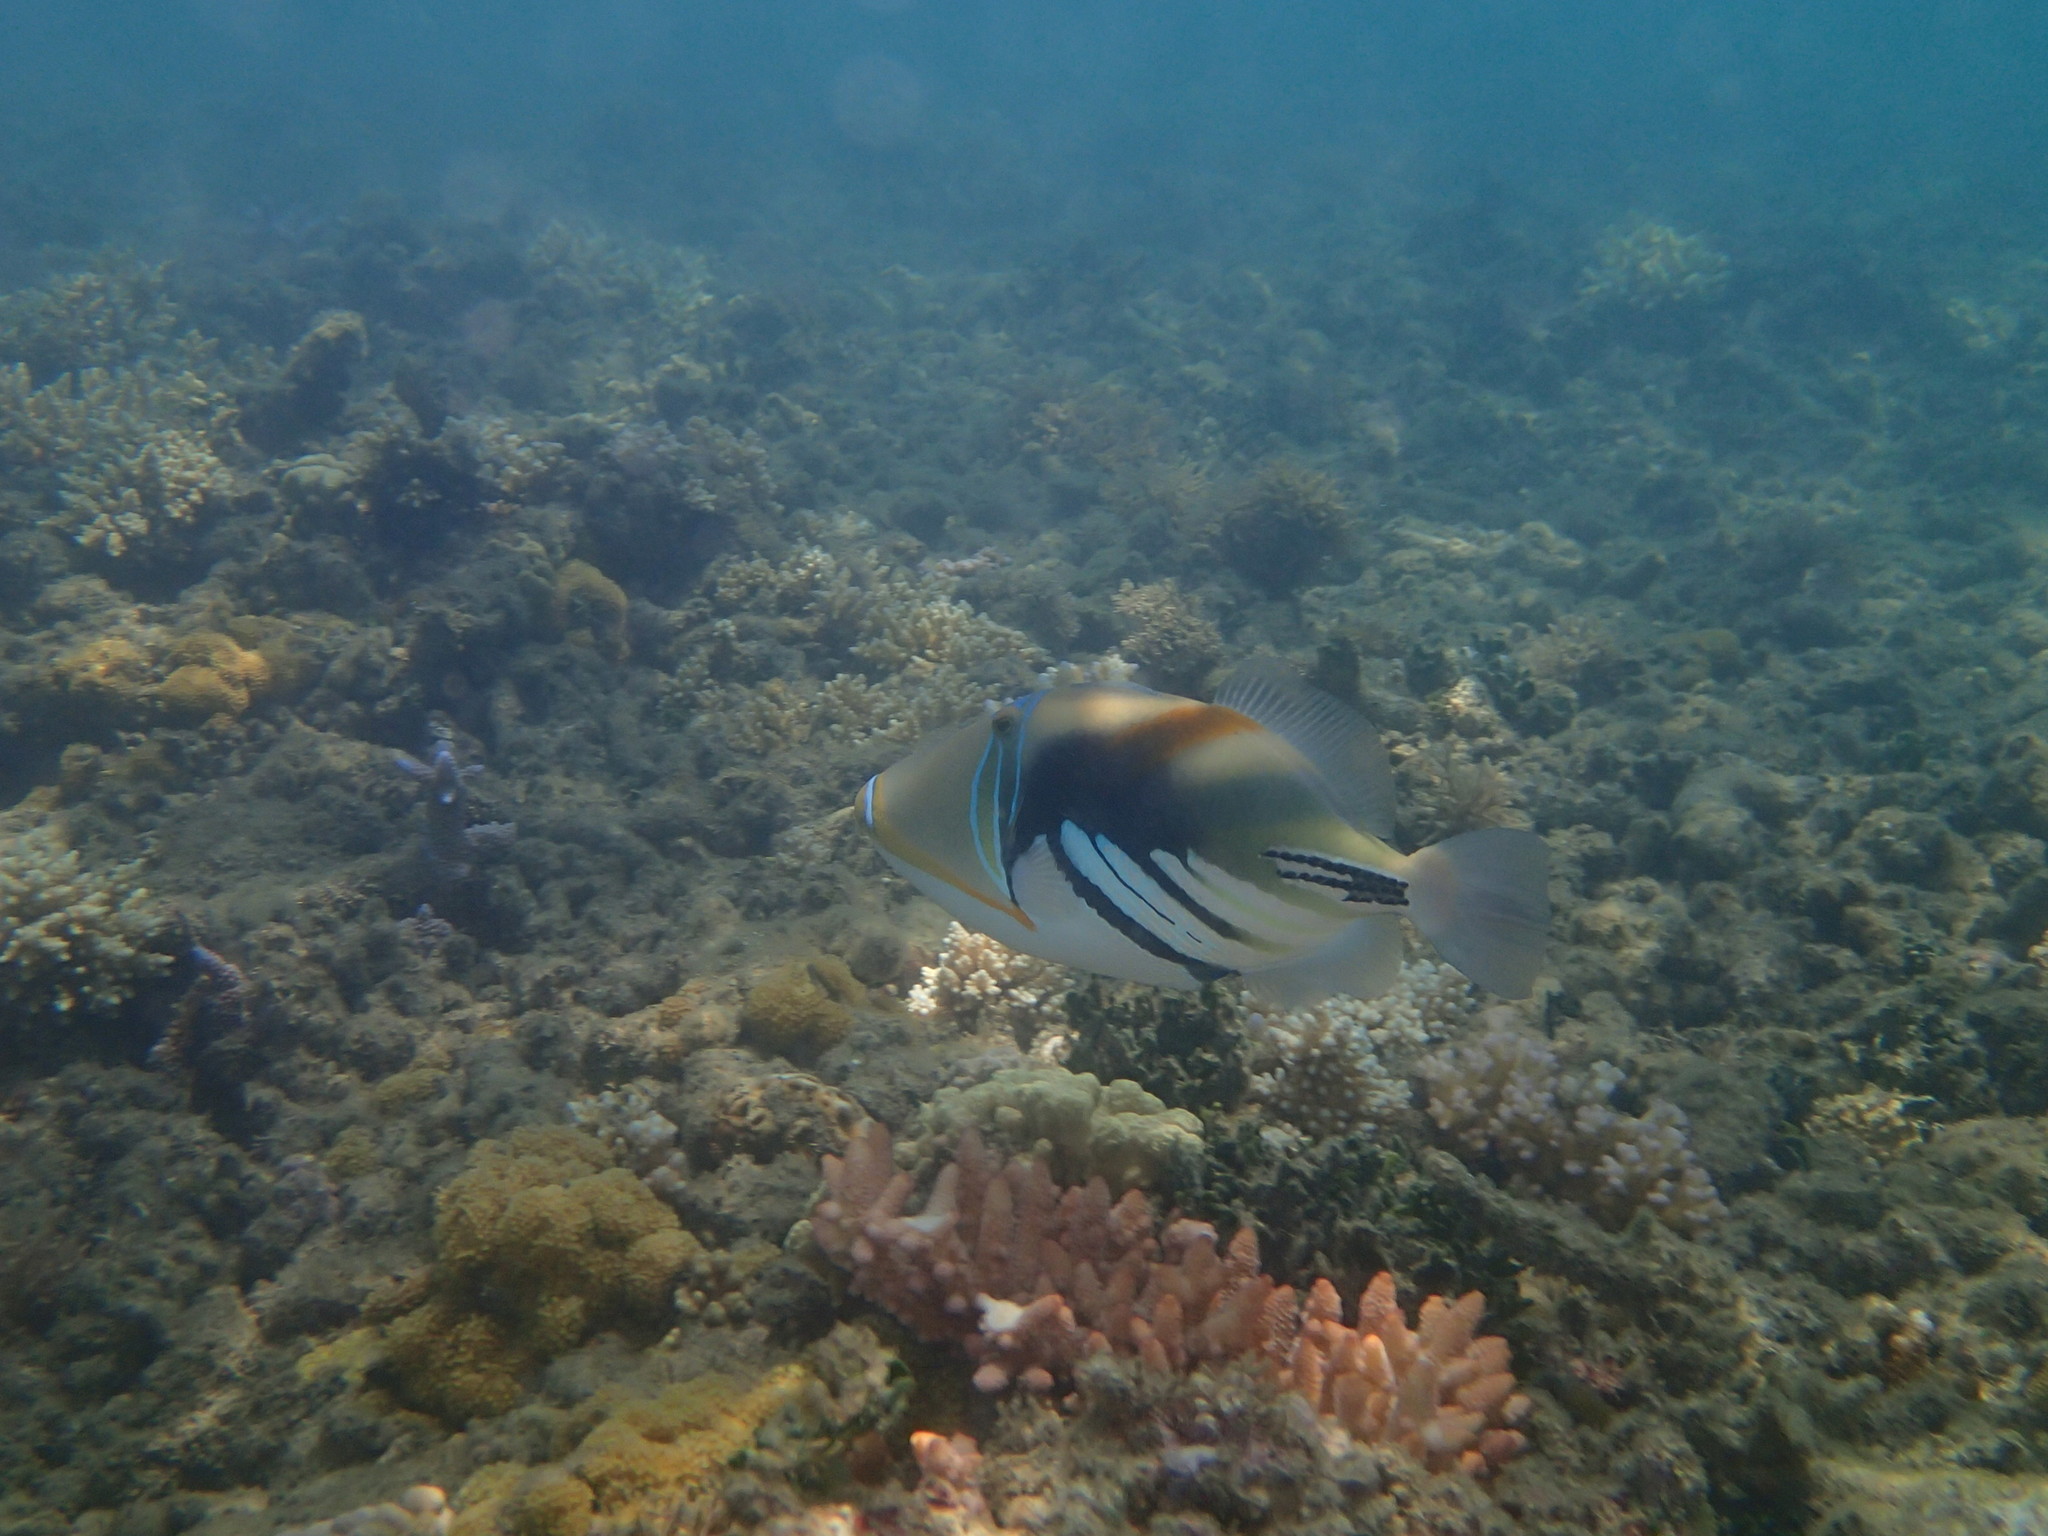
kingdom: Animalia
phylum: Chordata
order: Tetraodontiformes
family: Balistidae
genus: Rhinecanthus
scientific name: Rhinecanthus aculeatus
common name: White-banded triggerfish
